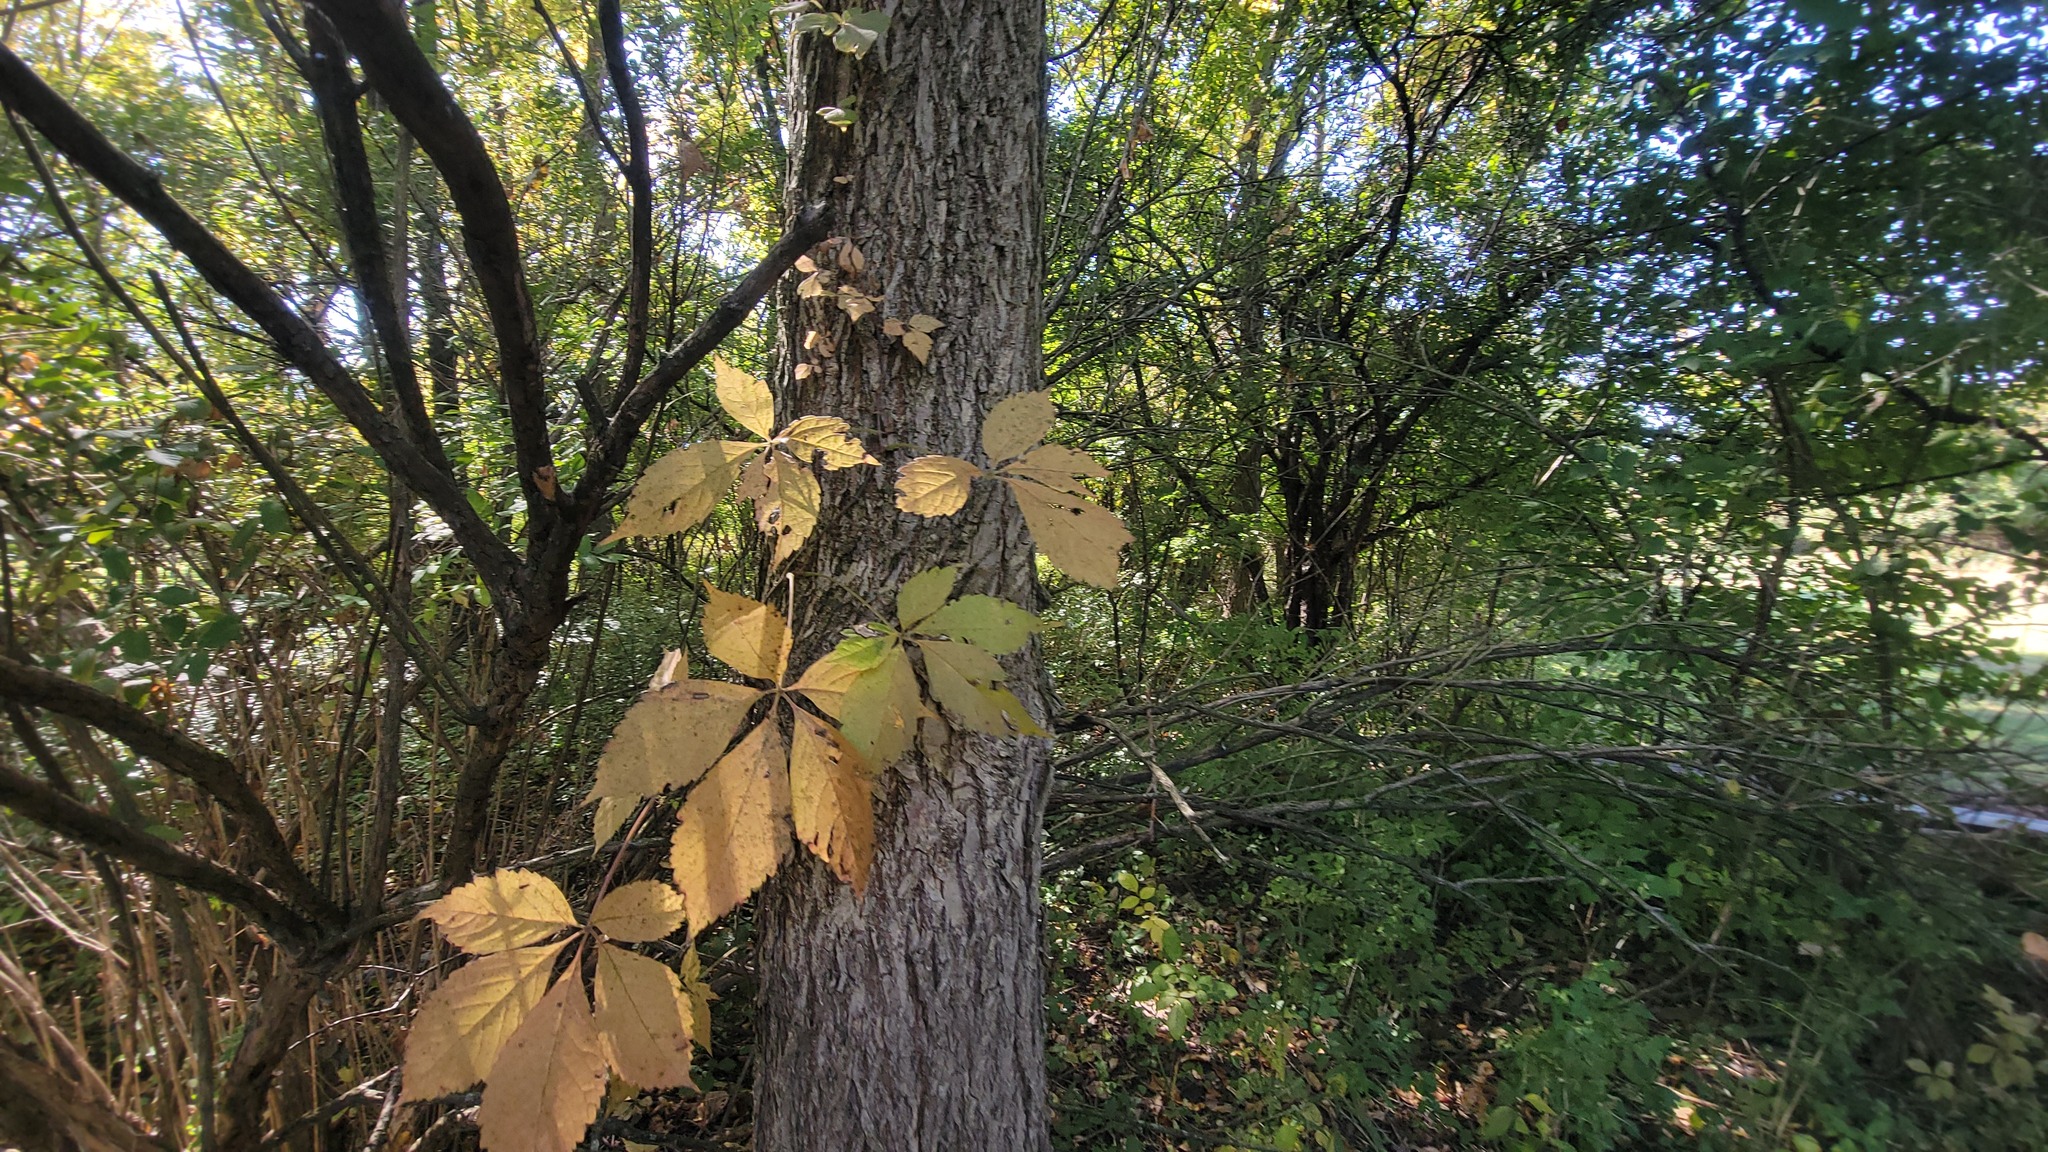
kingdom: Plantae
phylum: Tracheophyta
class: Magnoliopsida
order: Vitales
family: Vitaceae
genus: Parthenocissus
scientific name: Parthenocissus quinquefolia
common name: Virginia-creeper
